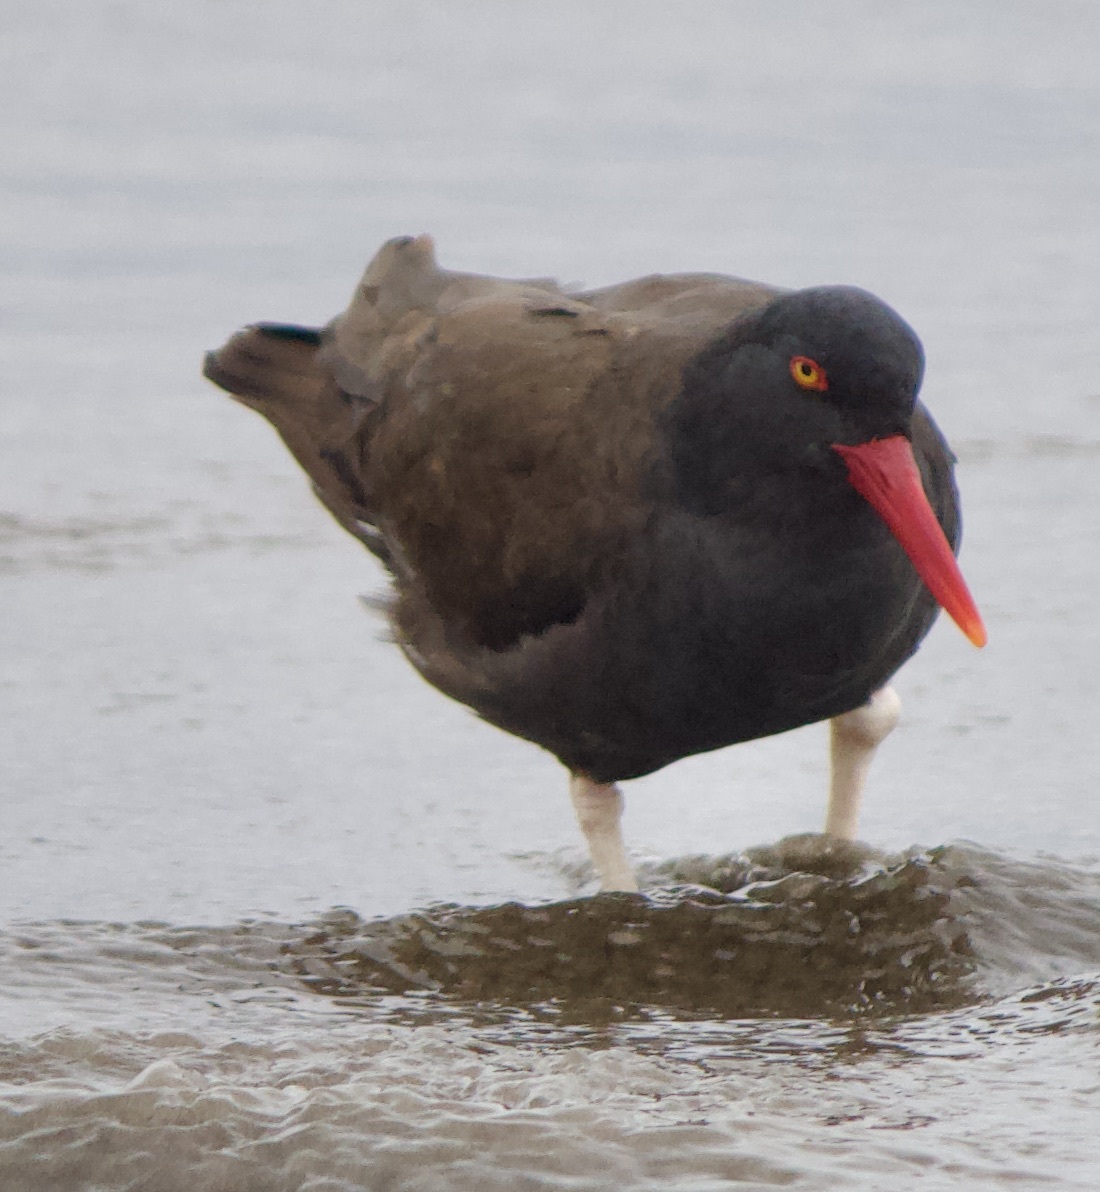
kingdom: Animalia
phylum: Chordata
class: Aves
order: Charadriiformes
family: Haematopodidae
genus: Haematopus
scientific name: Haematopus ater
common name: Blackish oystercatcher
